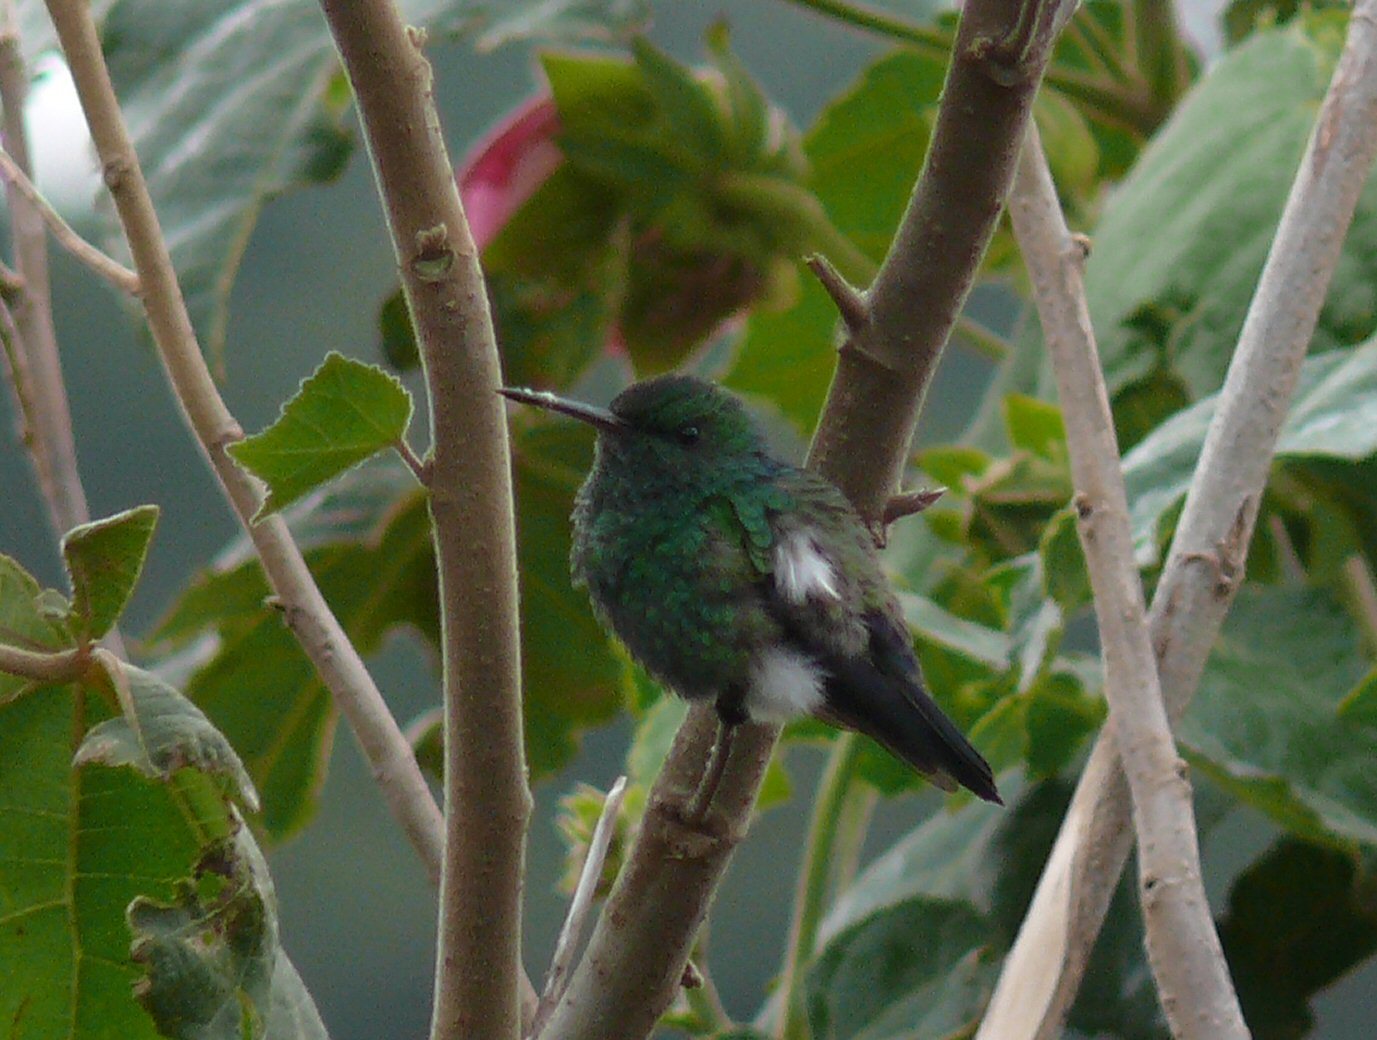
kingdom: Animalia
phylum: Chordata
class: Aves
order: Apodiformes
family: Trochilidae
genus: Saucerottia
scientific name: Saucerottia hoffmanni
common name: Blue-vented hummingbird
